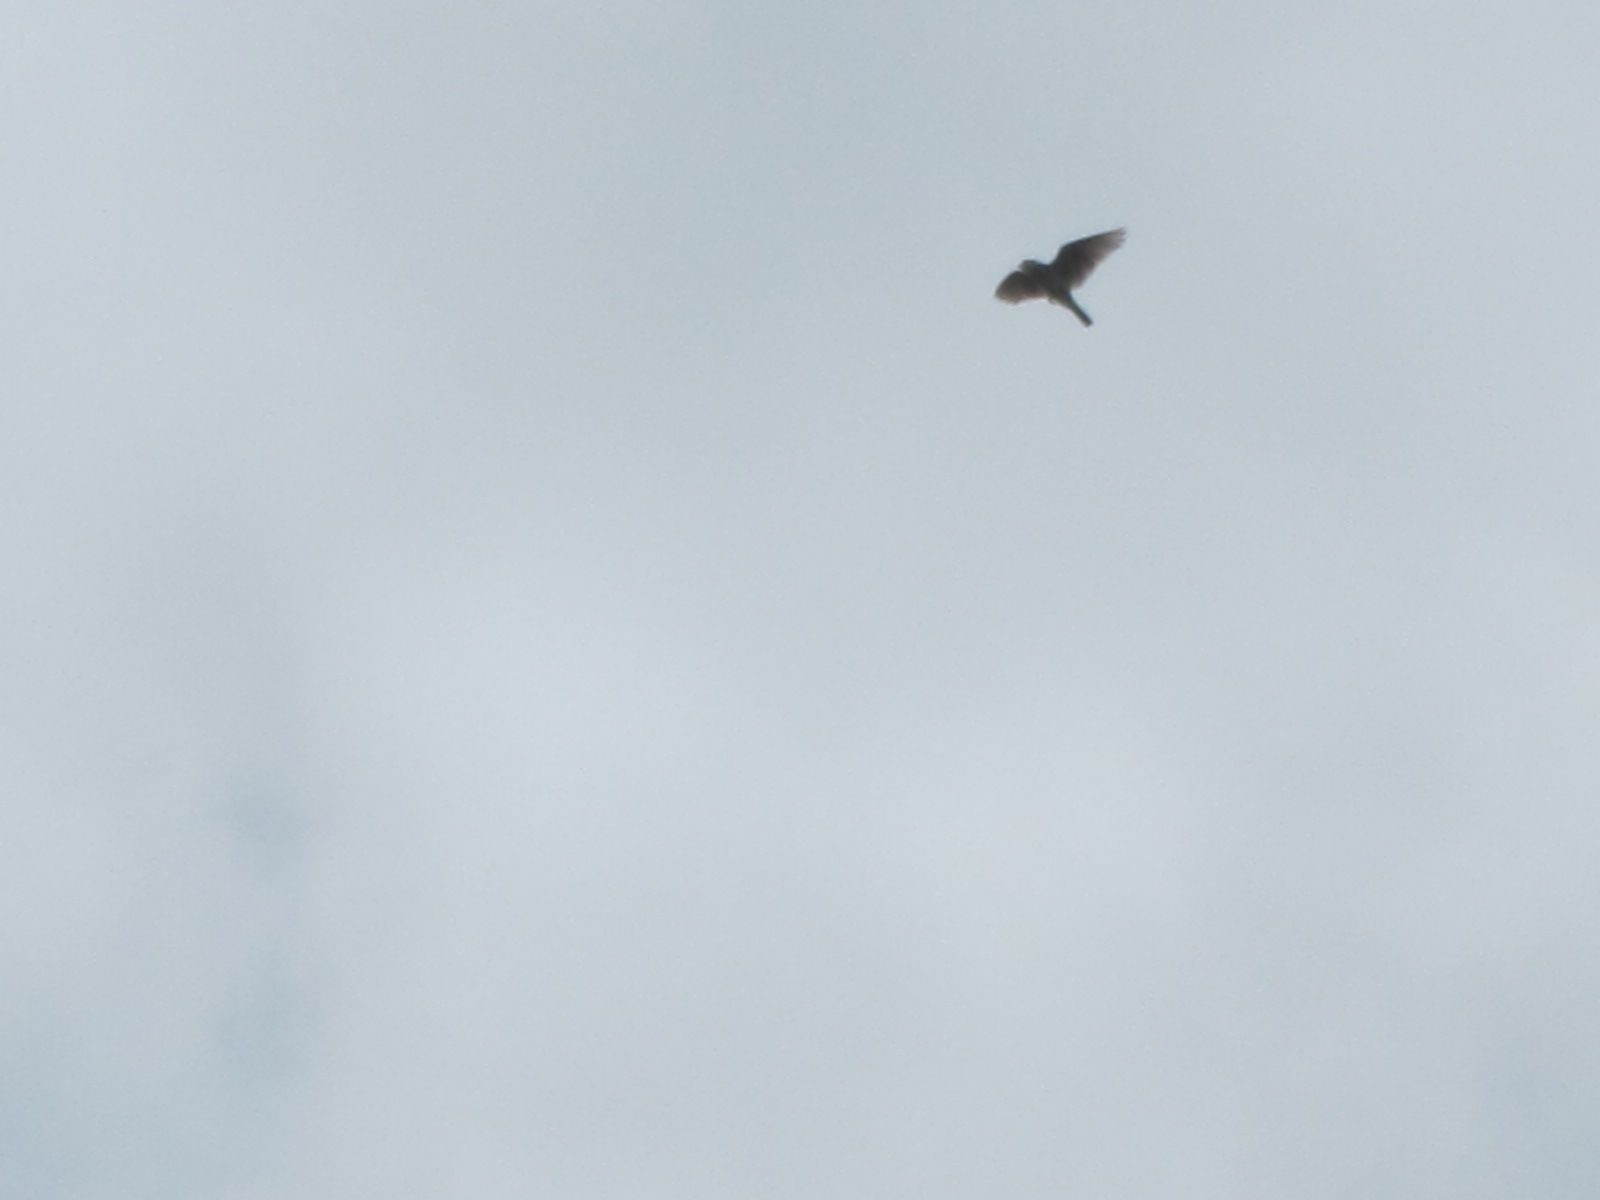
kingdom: Animalia
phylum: Chordata
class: Aves
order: Passeriformes
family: Alaudidae
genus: Alauda
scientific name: Alauda arvensis
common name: Eurasian skylark
